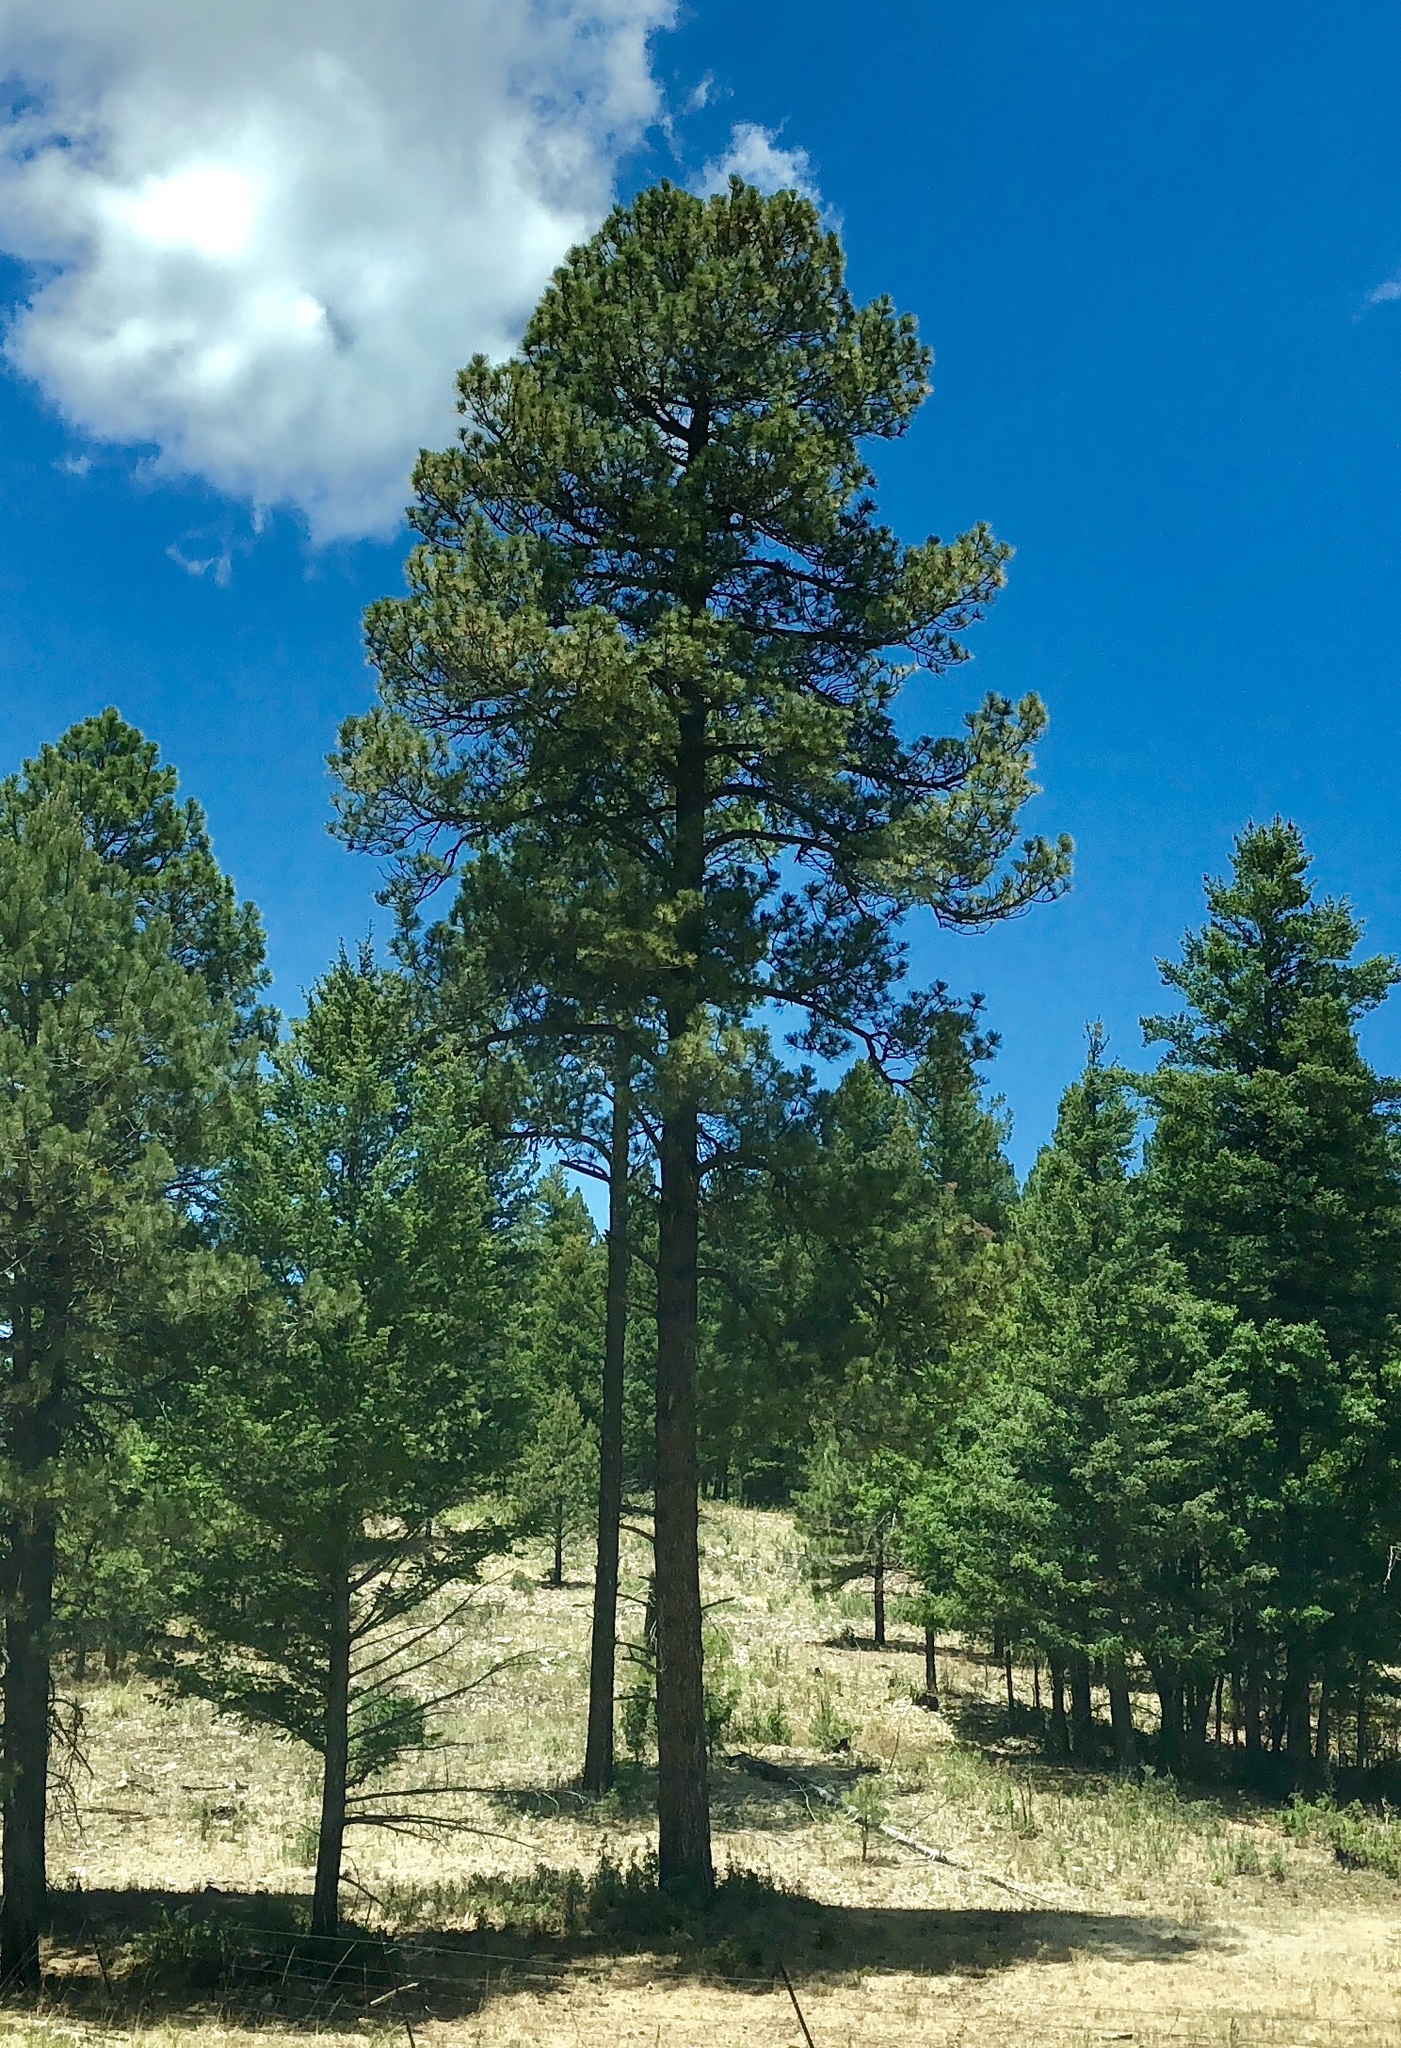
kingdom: Plantae
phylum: Tracheophyta
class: Pinopsida
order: Pinales
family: Pinaceae
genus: Pinus
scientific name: Pinus ponderosa
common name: Western yellow-pine
